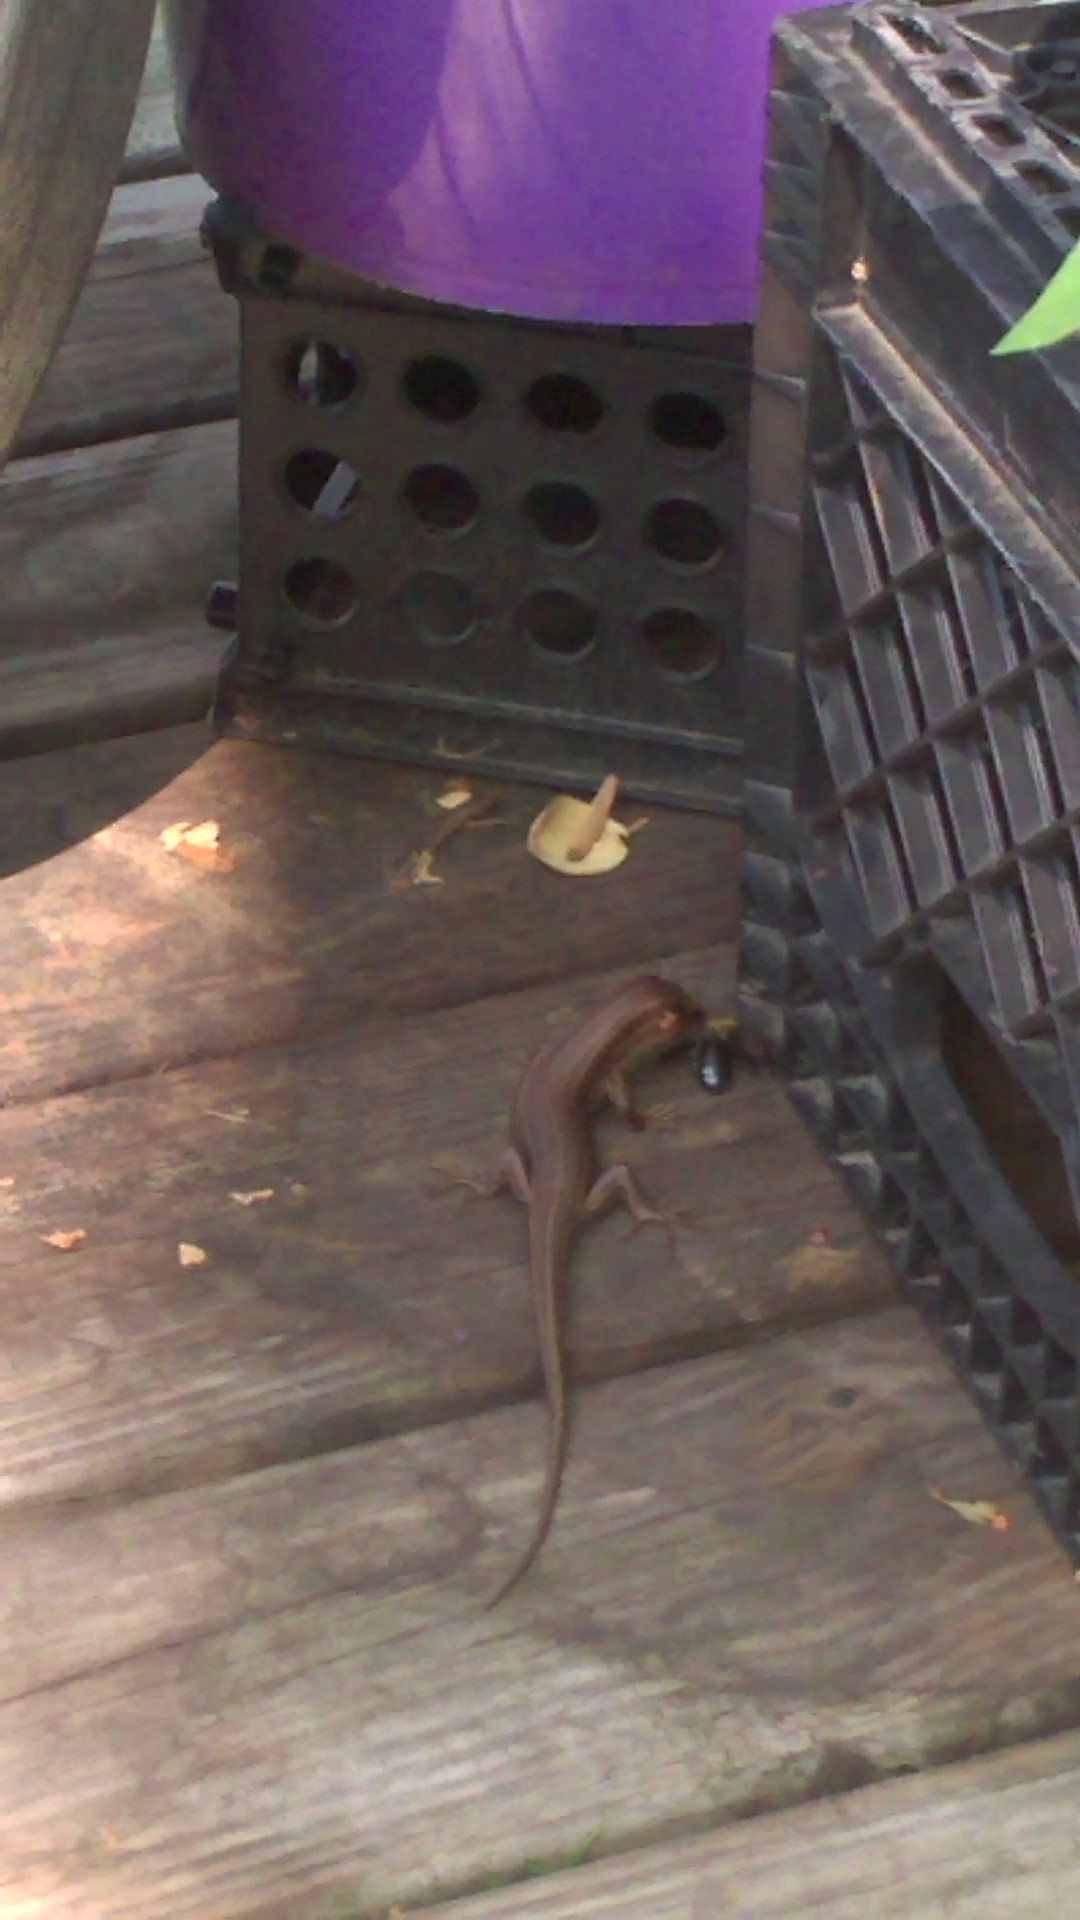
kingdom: Animalia
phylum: Arthropoda
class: Insecta
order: Hymenoptera
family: Apidae
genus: Xylocopa
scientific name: Xylocopa virginica
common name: Carpenter bee
